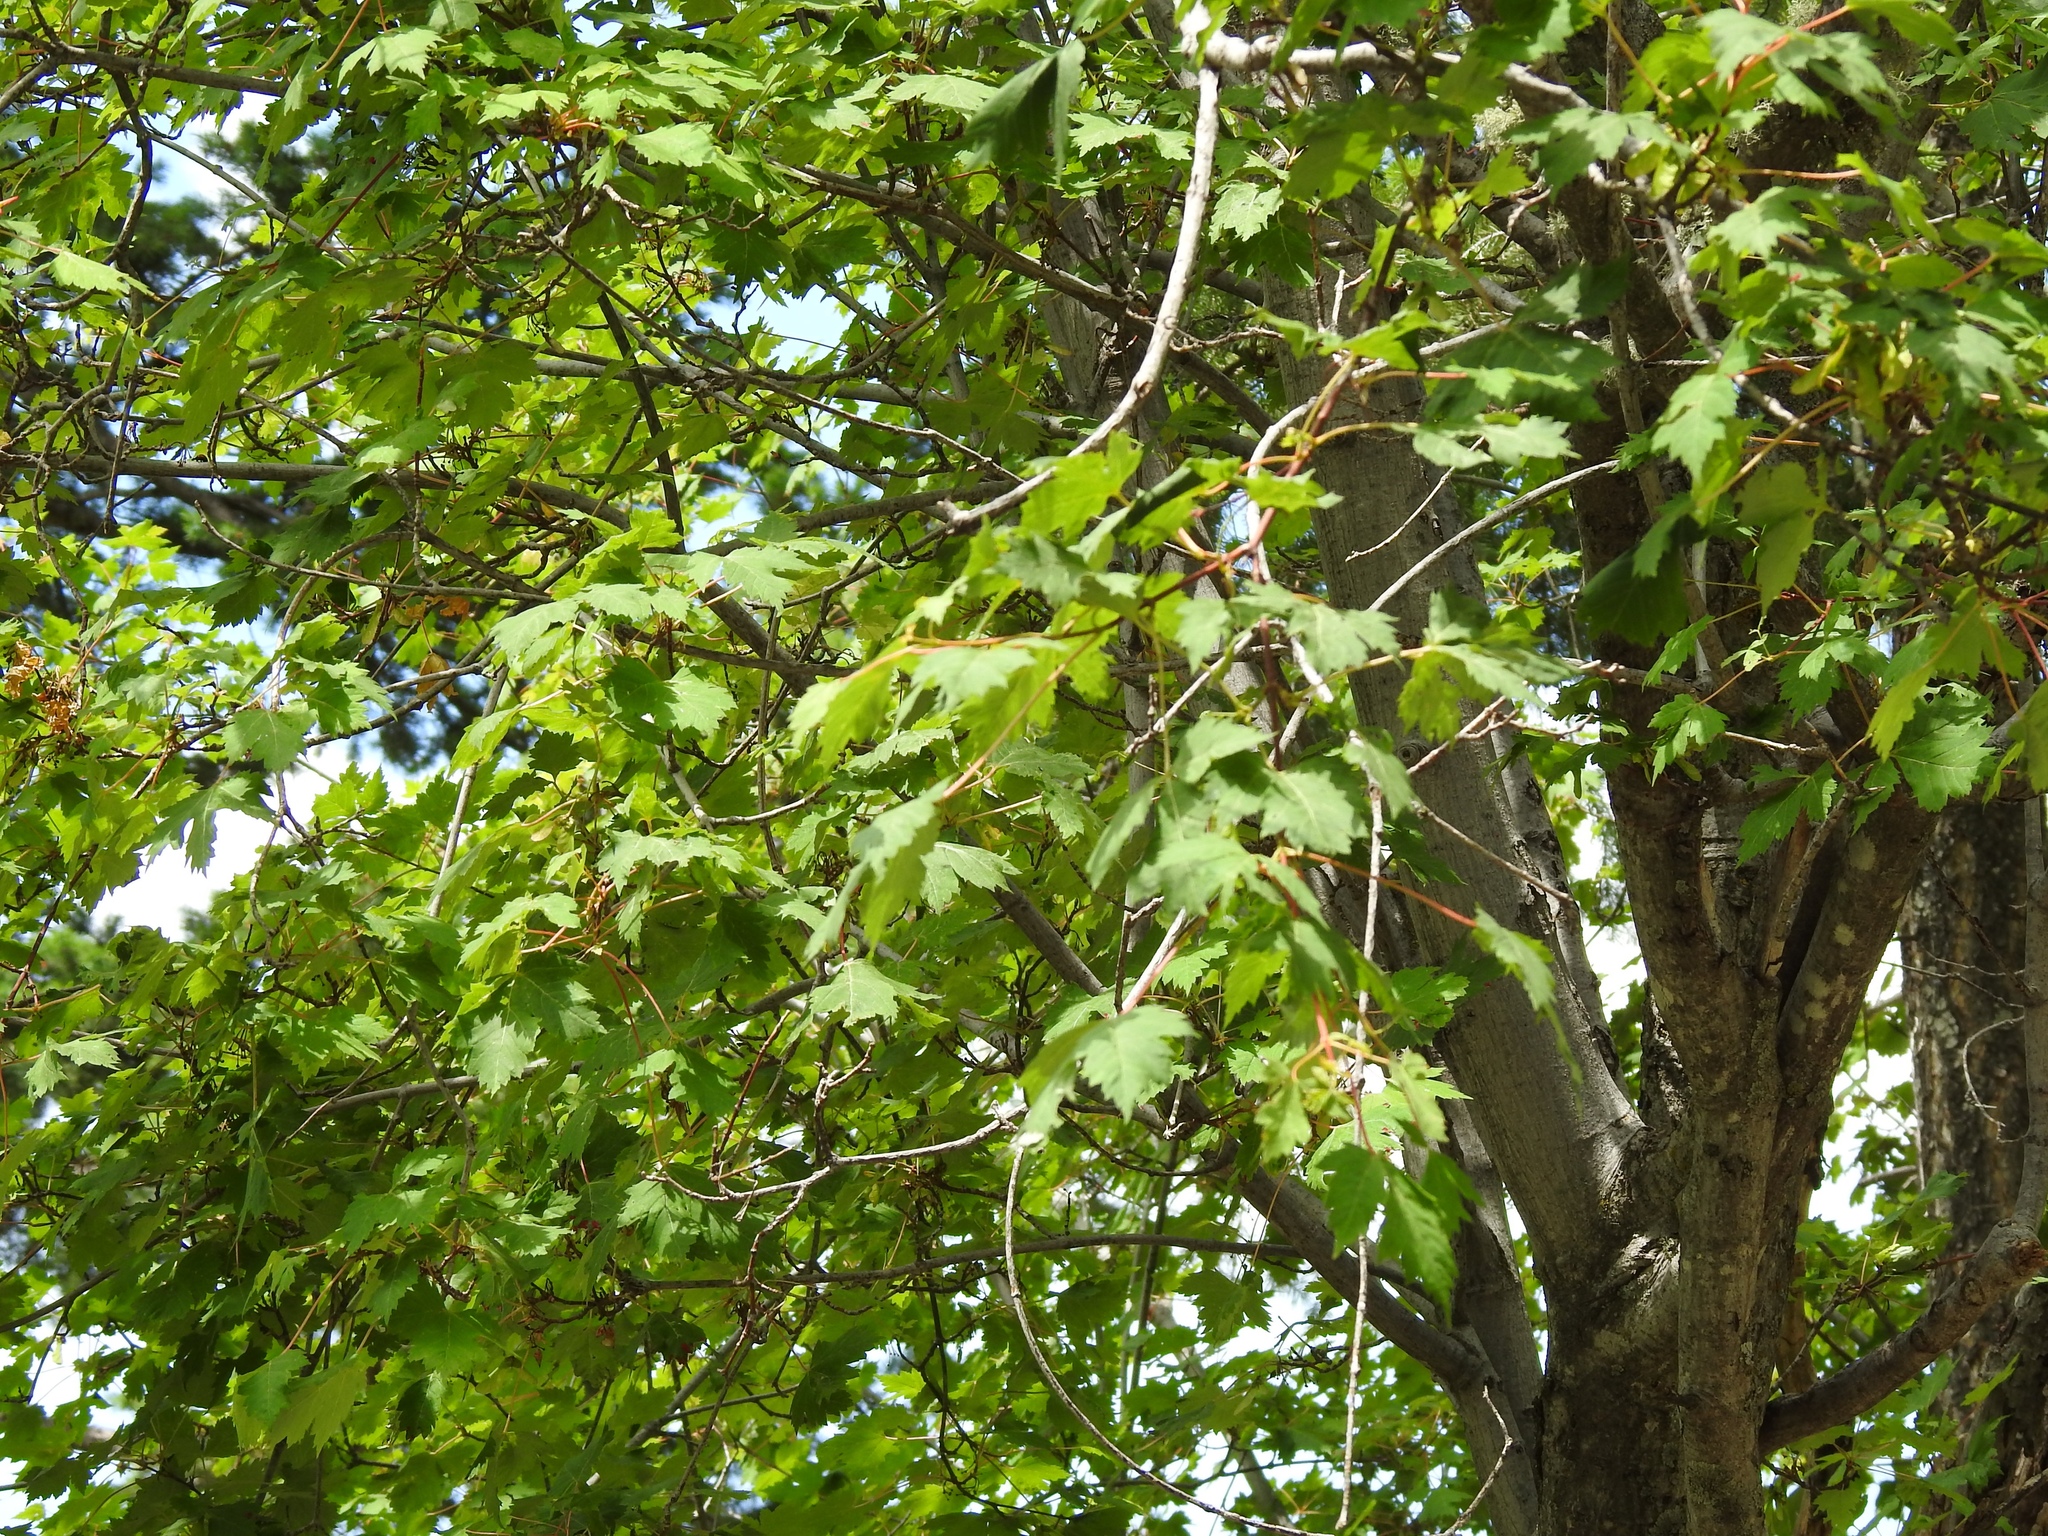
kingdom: Plantae
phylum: Tracheophyta
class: Magnoliopsida
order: Sapindales
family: Sapindaceae
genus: Acer
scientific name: Acer glabrum
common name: Rocky mountain maple
